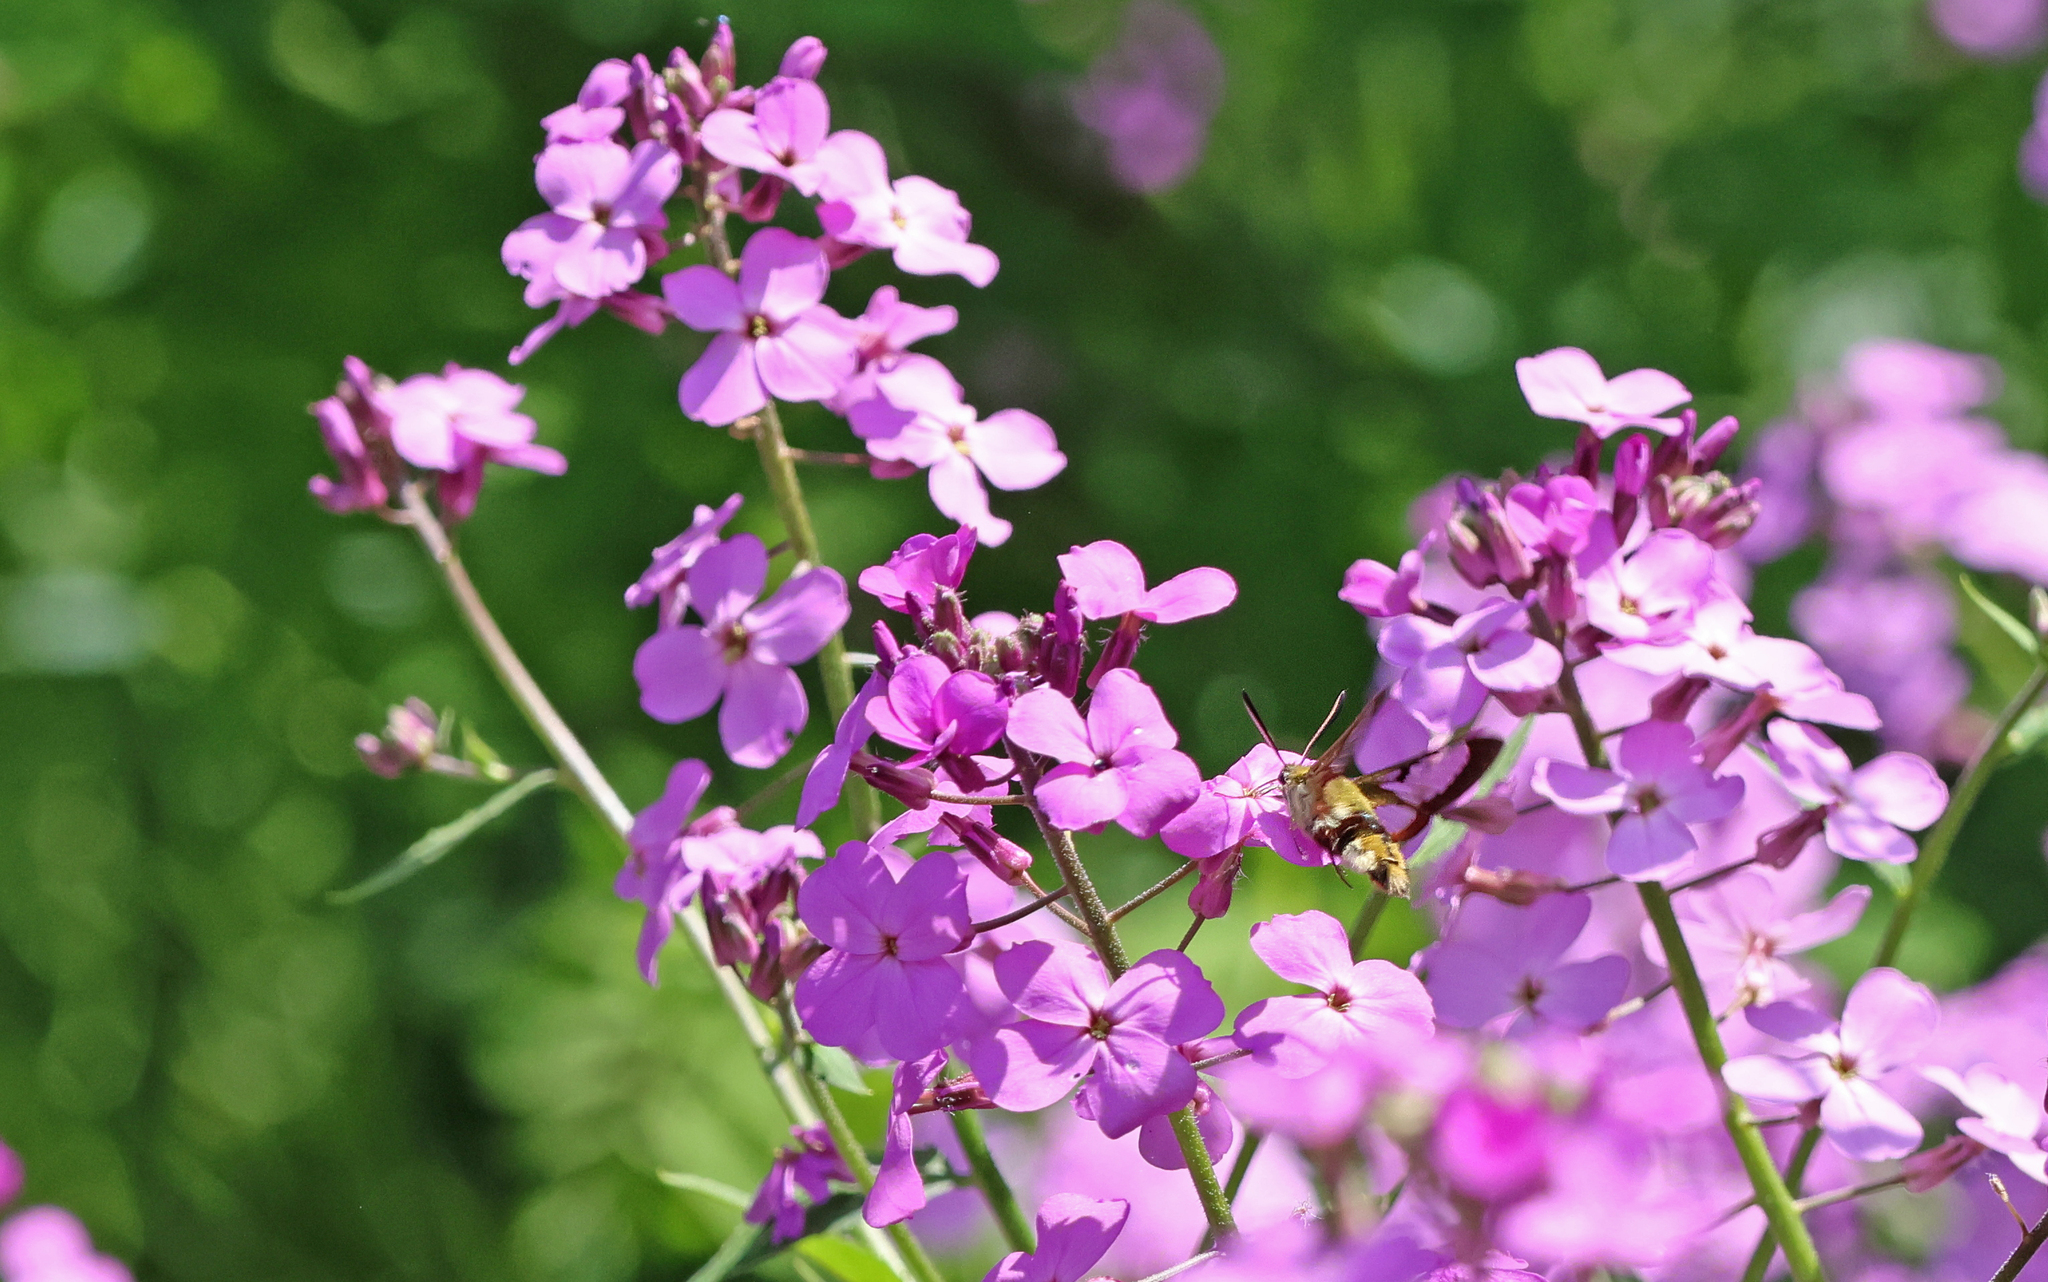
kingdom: Animalia
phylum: Arthropoda
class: Insecta
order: Lepidoptera
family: Sphingidae
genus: Hemaris
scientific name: Hemaris fuciformis
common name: Broad-bordered bee hawk-moth
